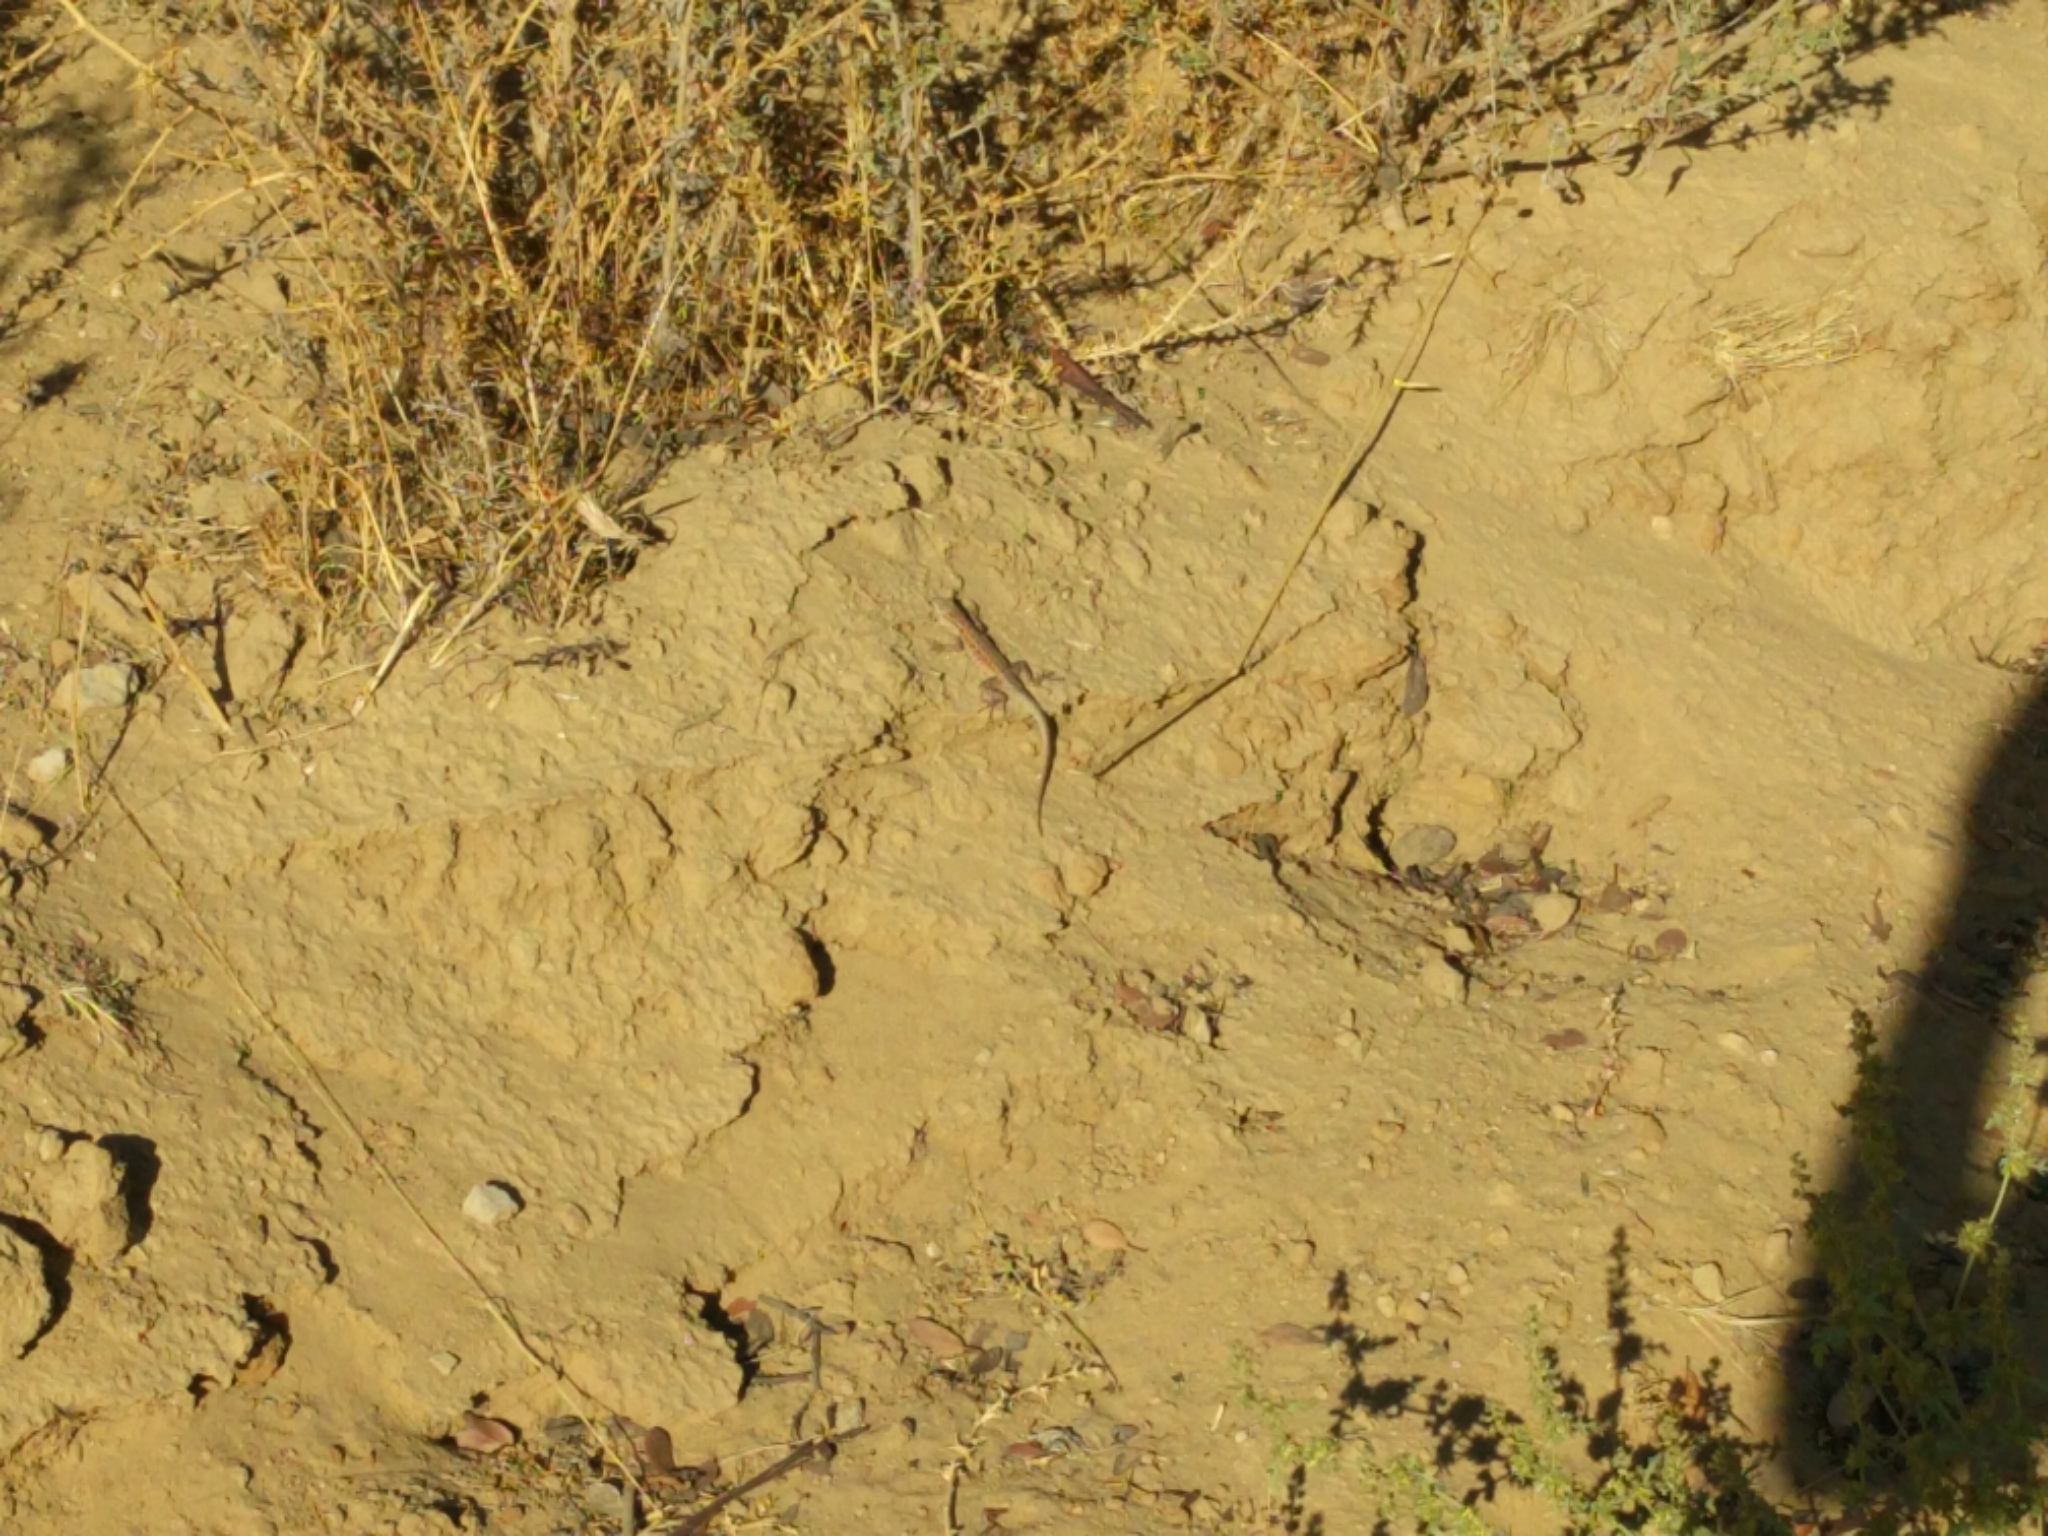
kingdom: Animalia
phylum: Chordata
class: Squamata
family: Phrynosomatidae
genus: Uta
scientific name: Uta stansburiana
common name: Side-blotched lizard
